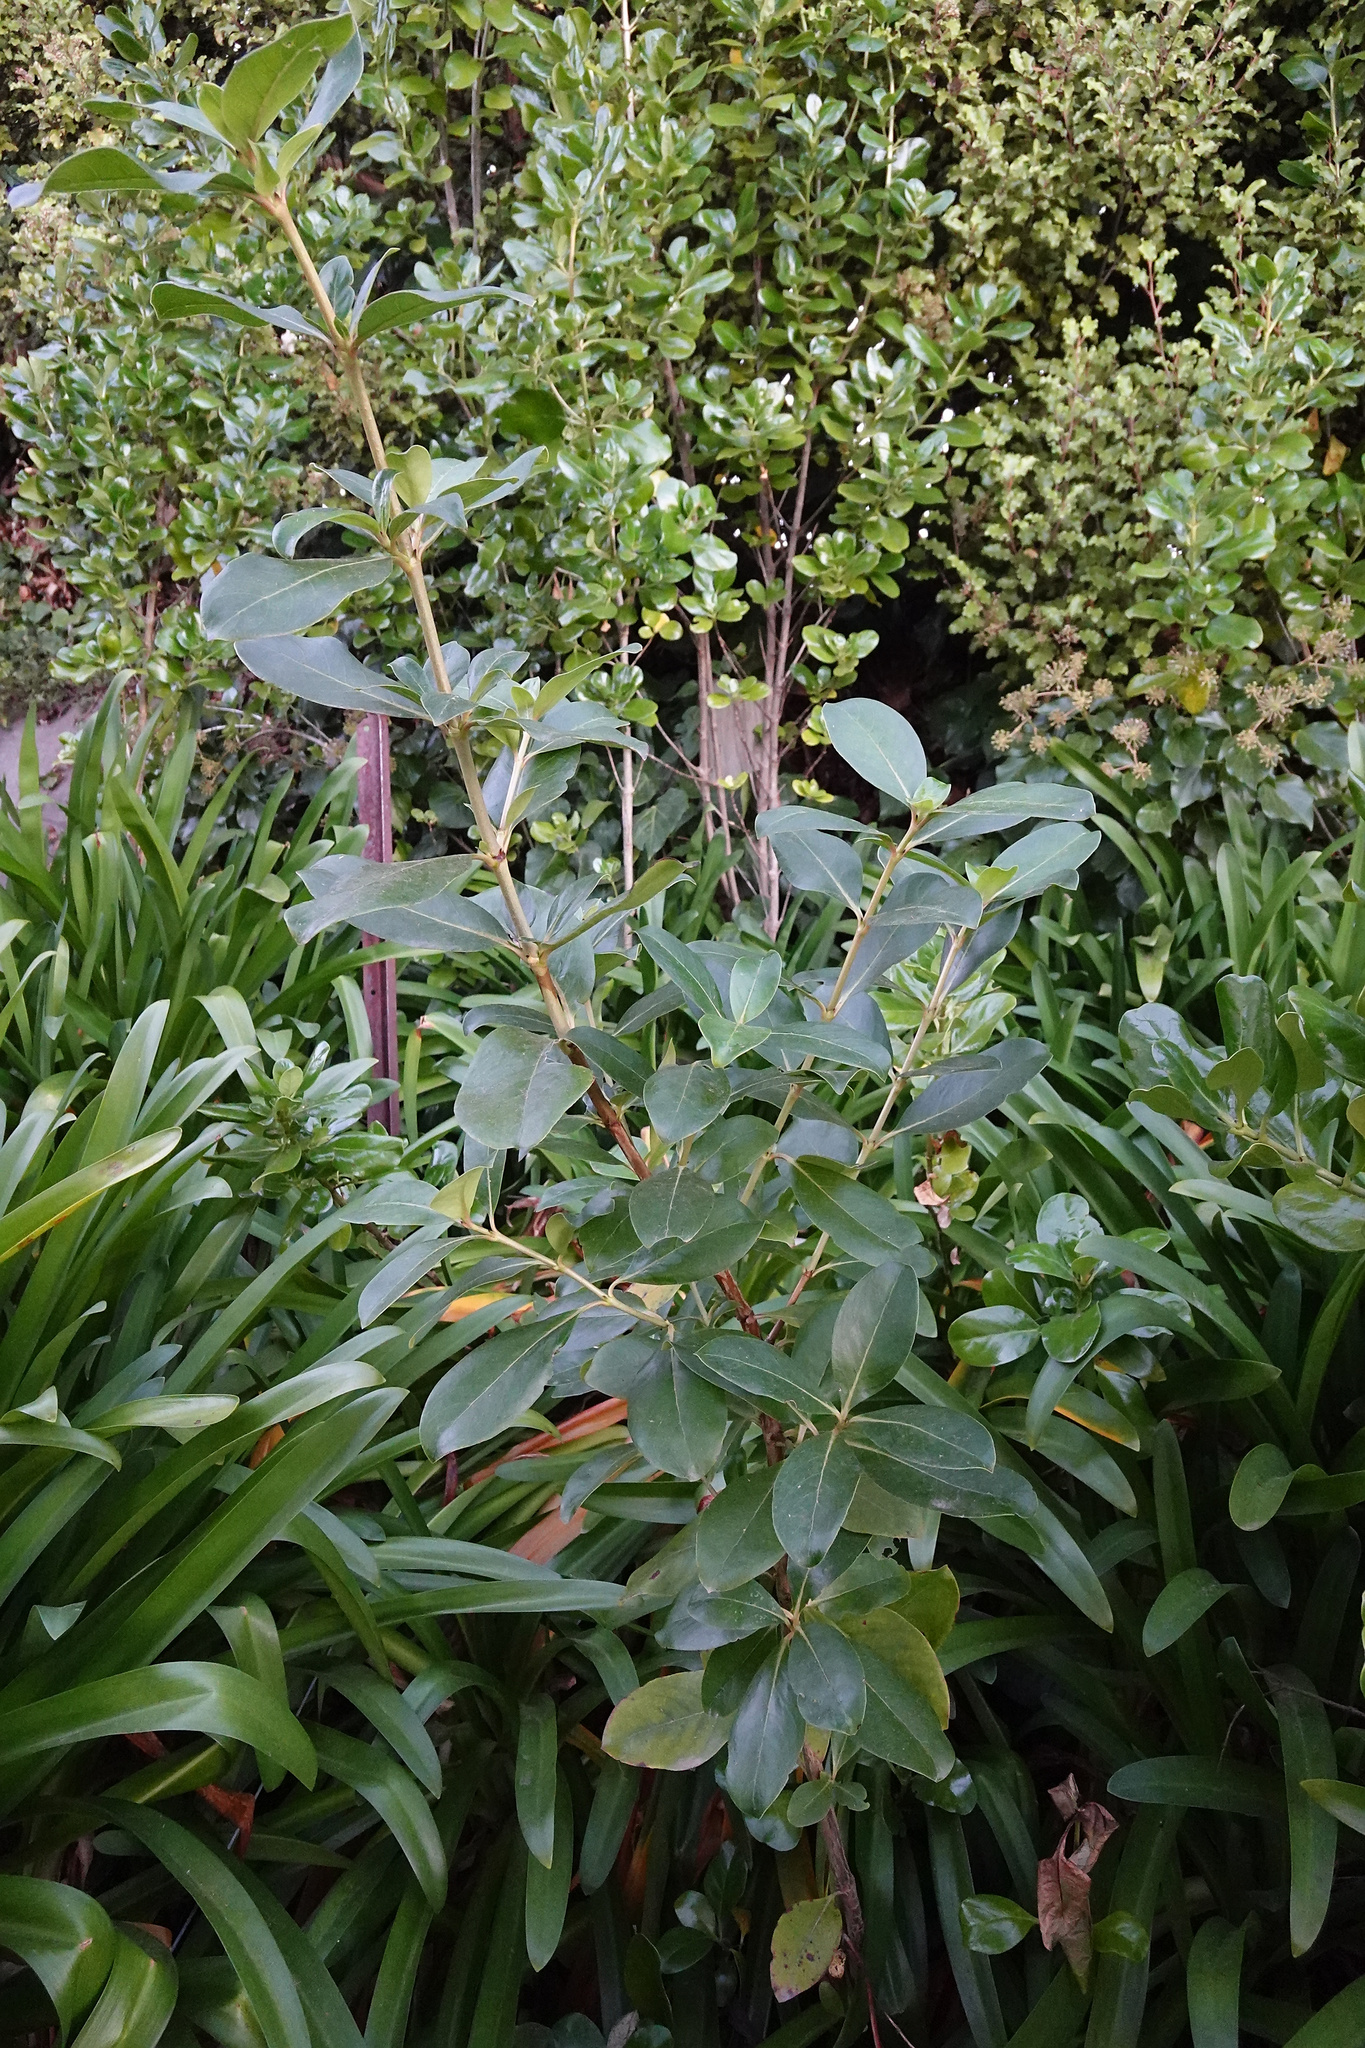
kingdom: Plantae
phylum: Tracheophyta
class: Magnoliopsida
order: Gentianales
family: Rubiaceae
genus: Coprosma
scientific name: Coprosma robusta
